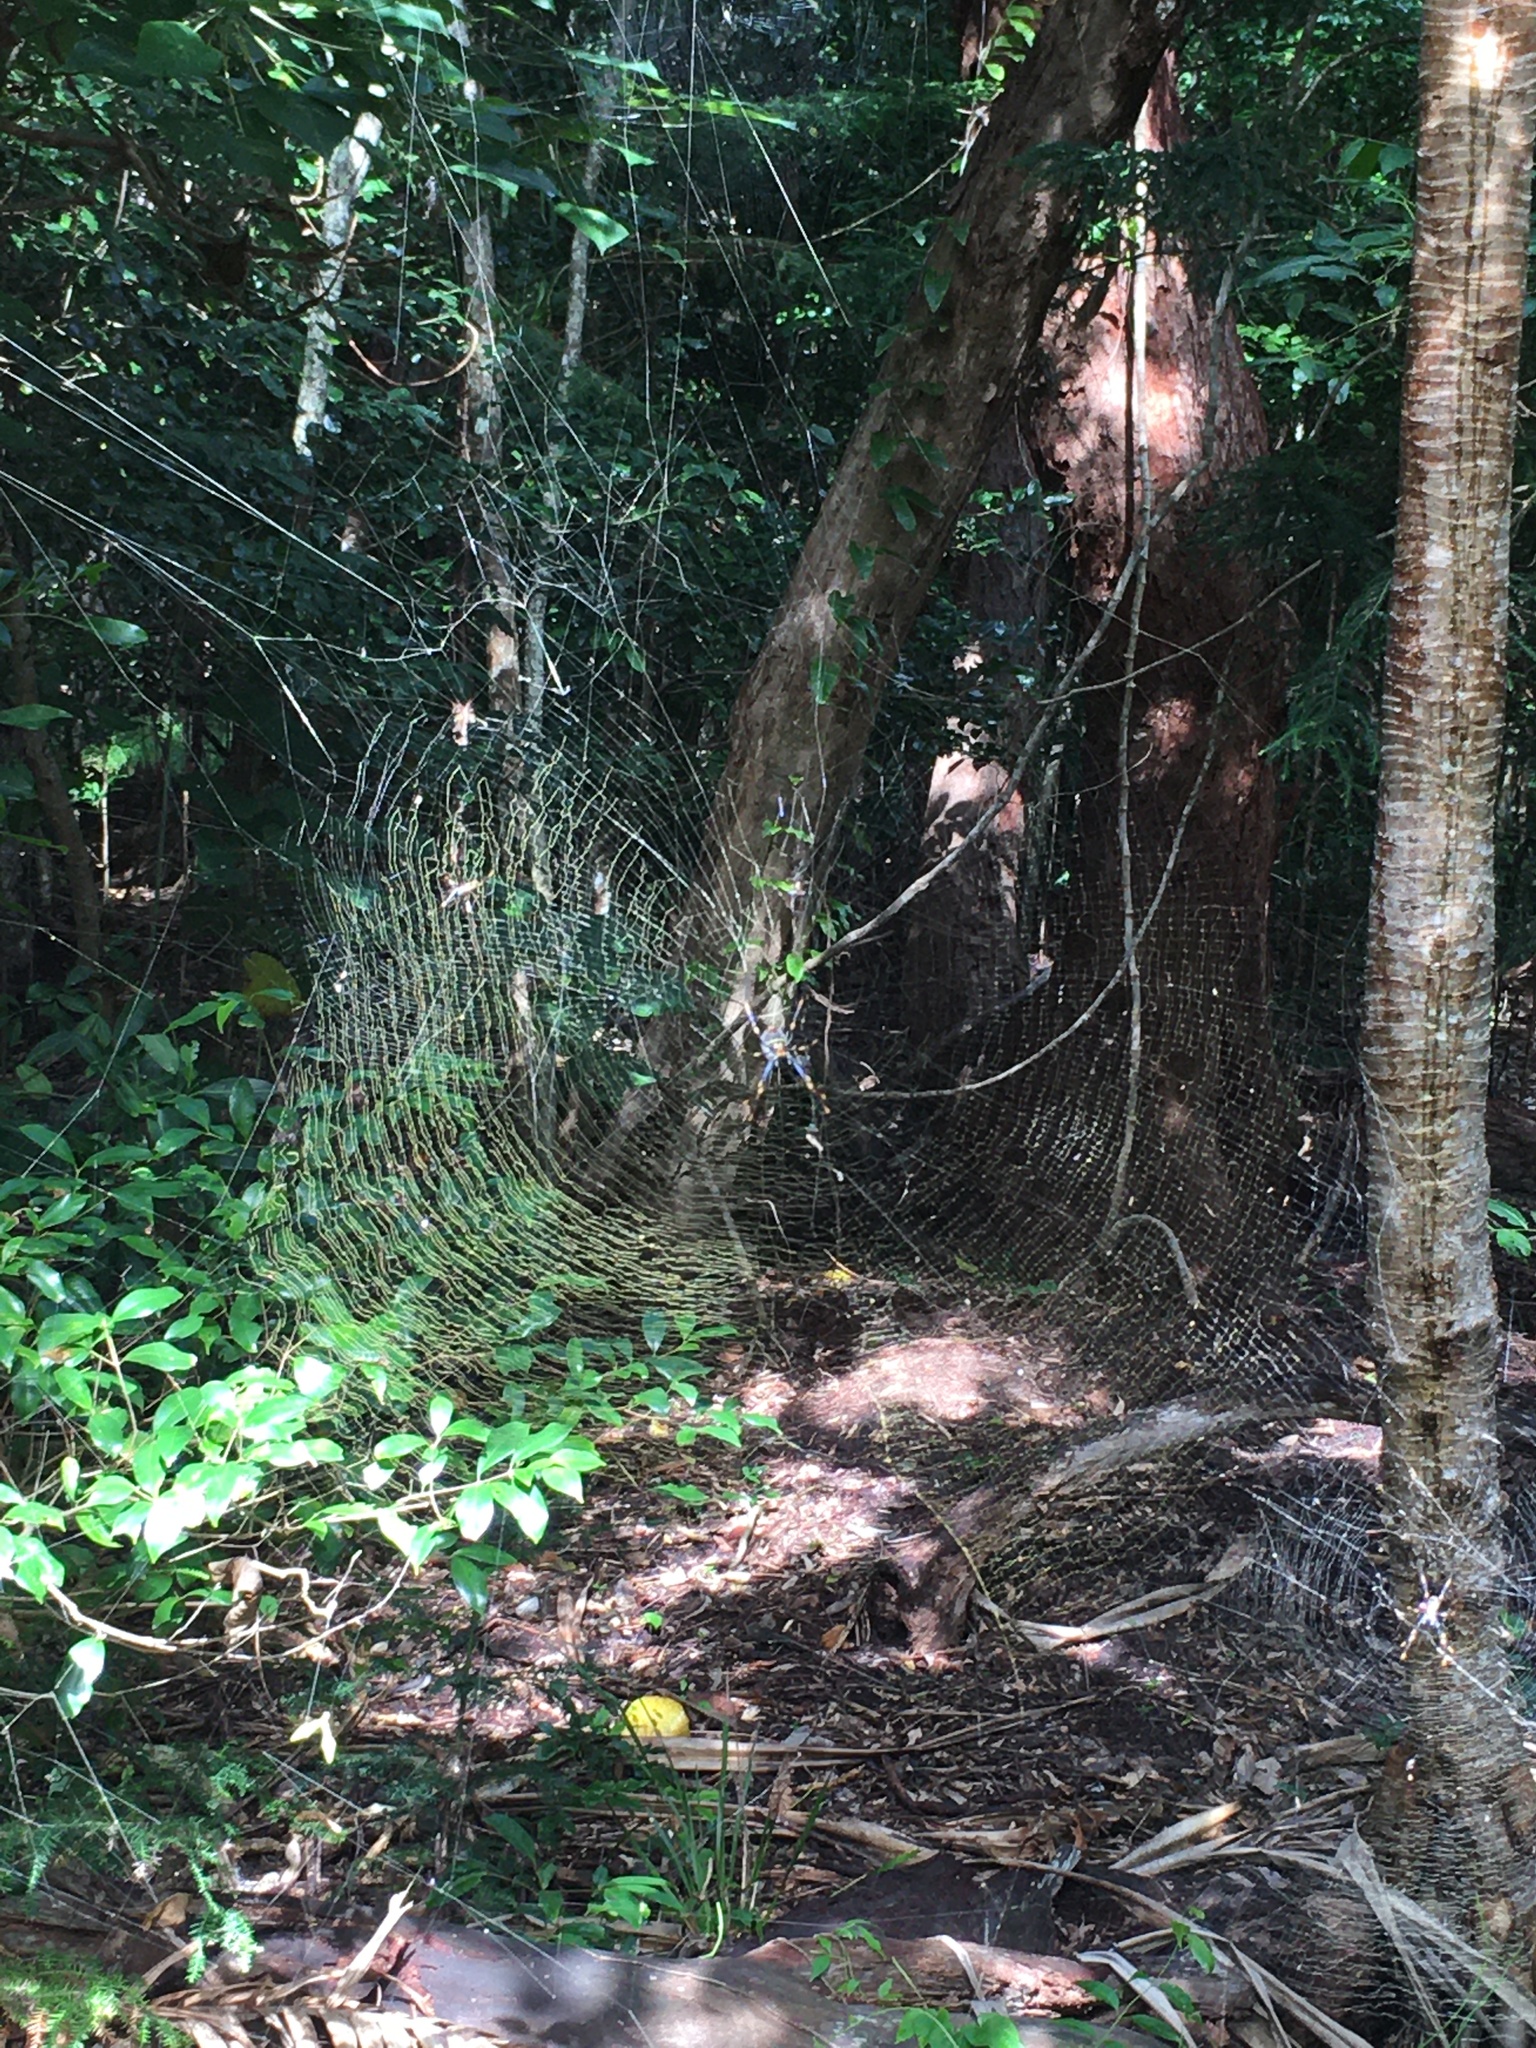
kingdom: Animalia
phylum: Arthropoda
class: Arachnida
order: Araneae
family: Araneidae
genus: Trichonephila
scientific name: Trichonephila plumipes
